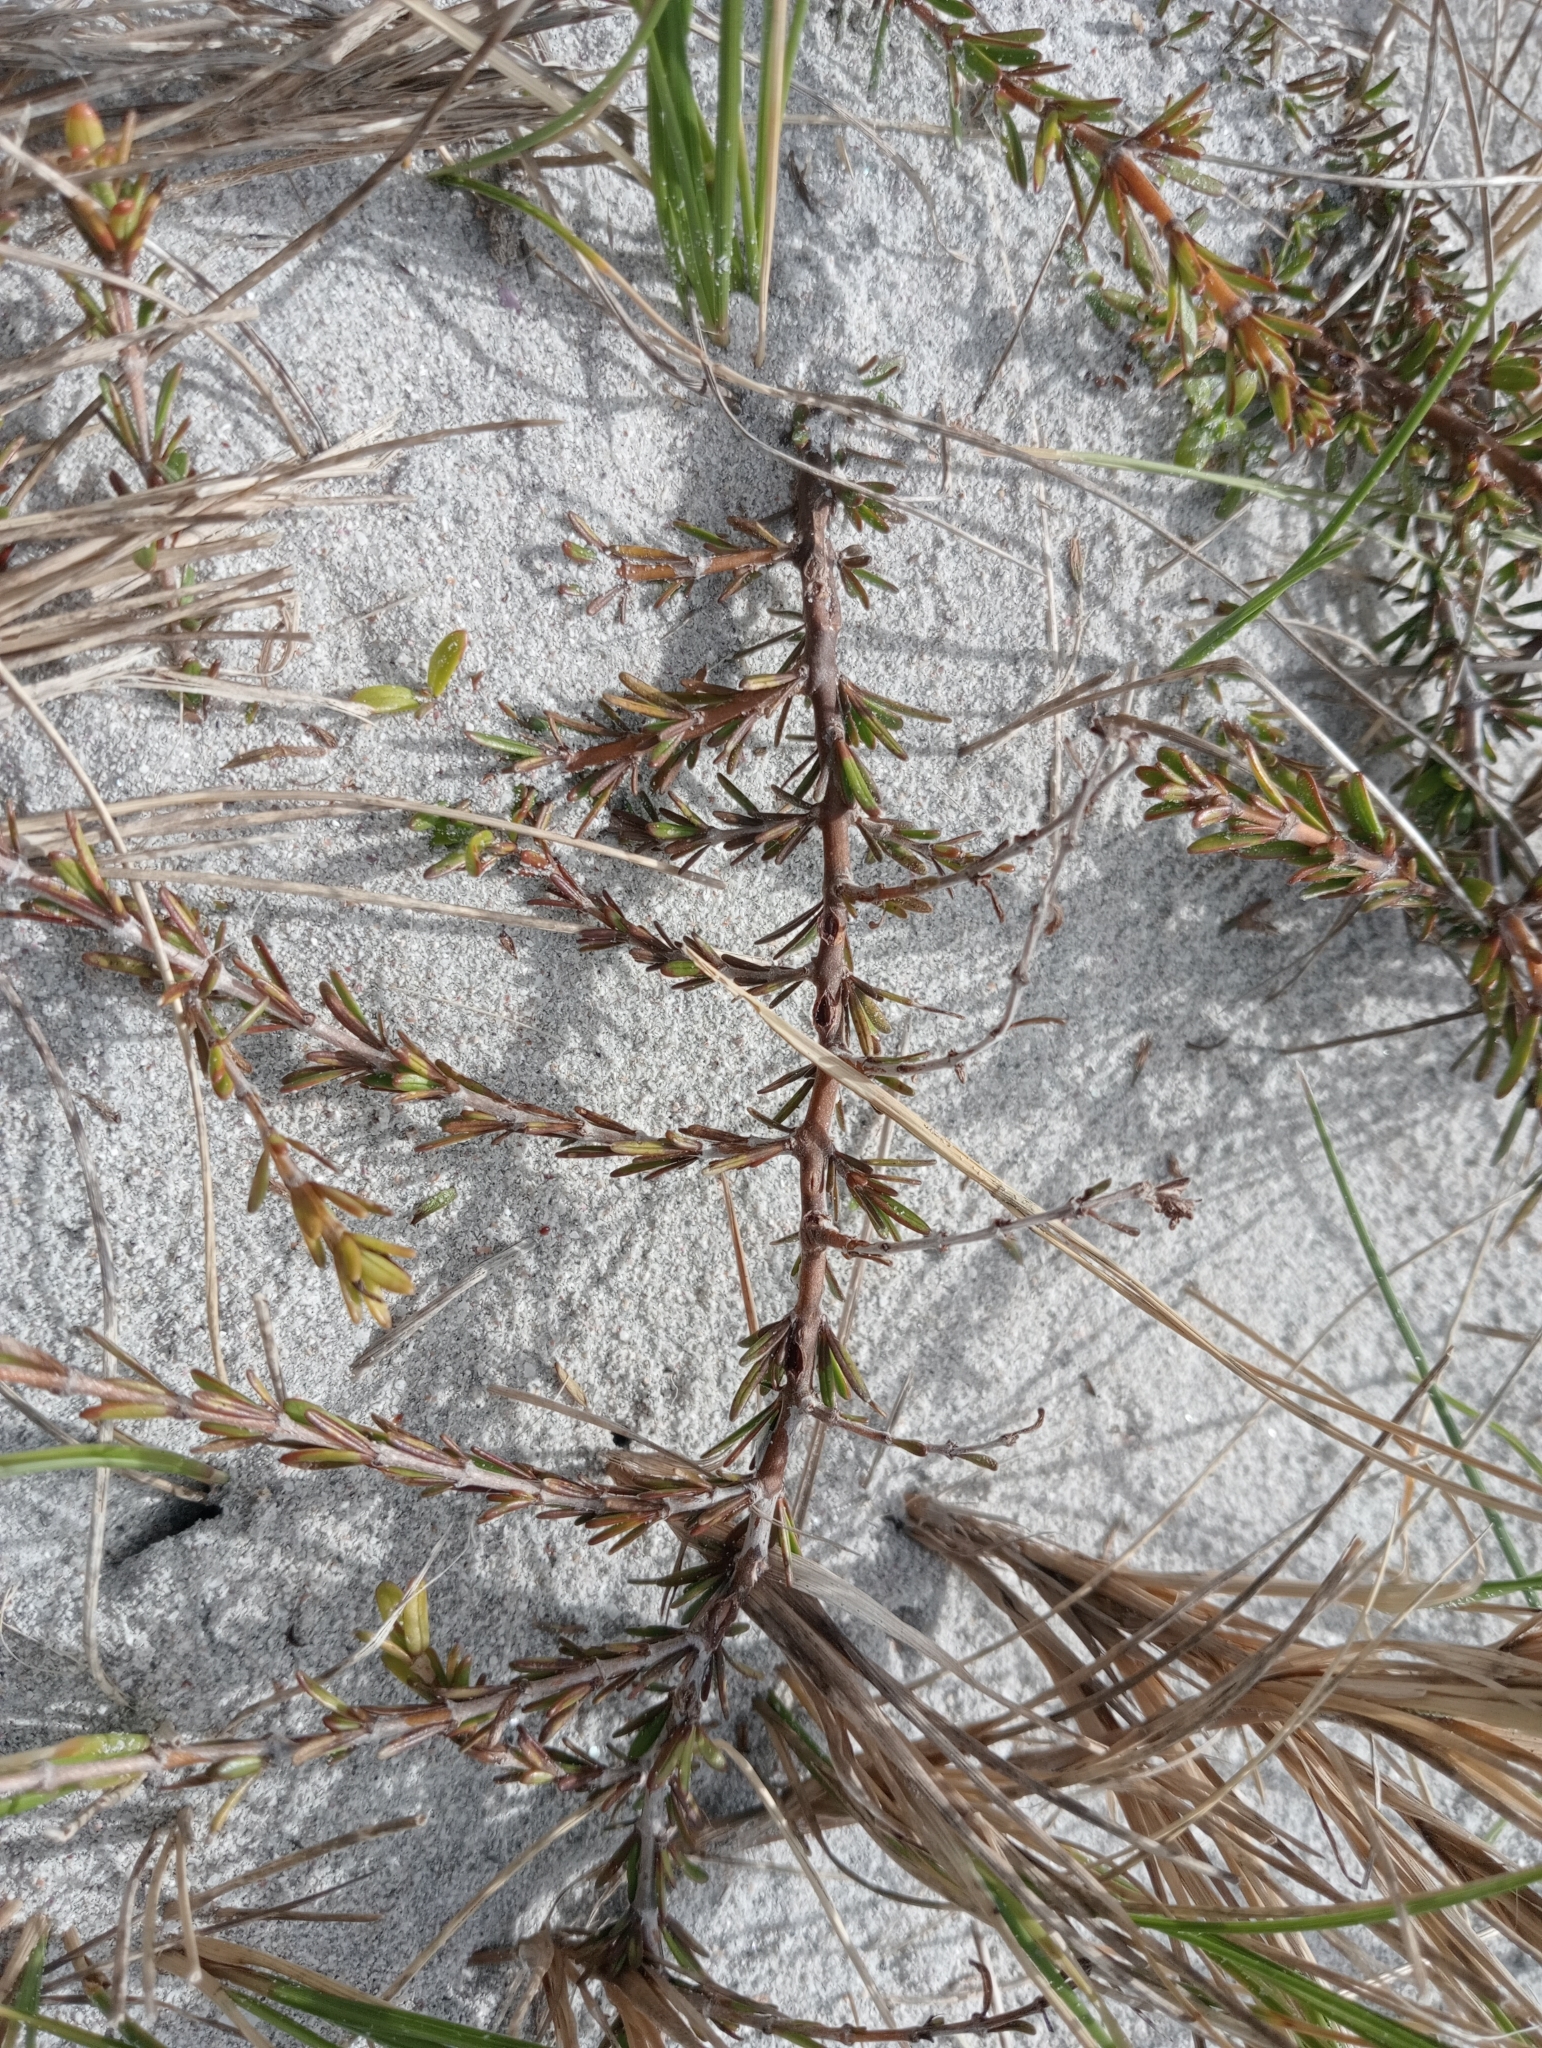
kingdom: Plantae
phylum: Tracheophyta
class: Magnoliopsida
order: Gentianales
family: Rubiaceae
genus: Coprosma
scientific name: Coprosma acerosa
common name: Sand coprosma
